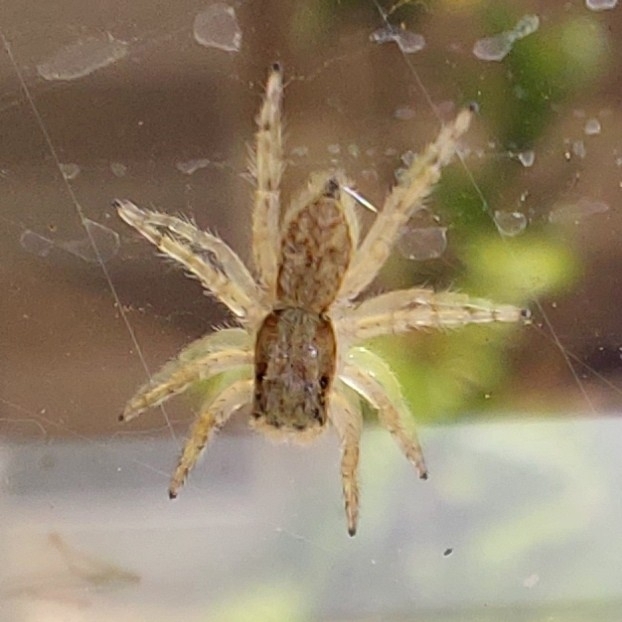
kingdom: Animalia
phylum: Arthropoda
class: Arachnida
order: Araneae
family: Salticidae
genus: Menemerus
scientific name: Menemerus bivittatus
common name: Gray wall jumper
